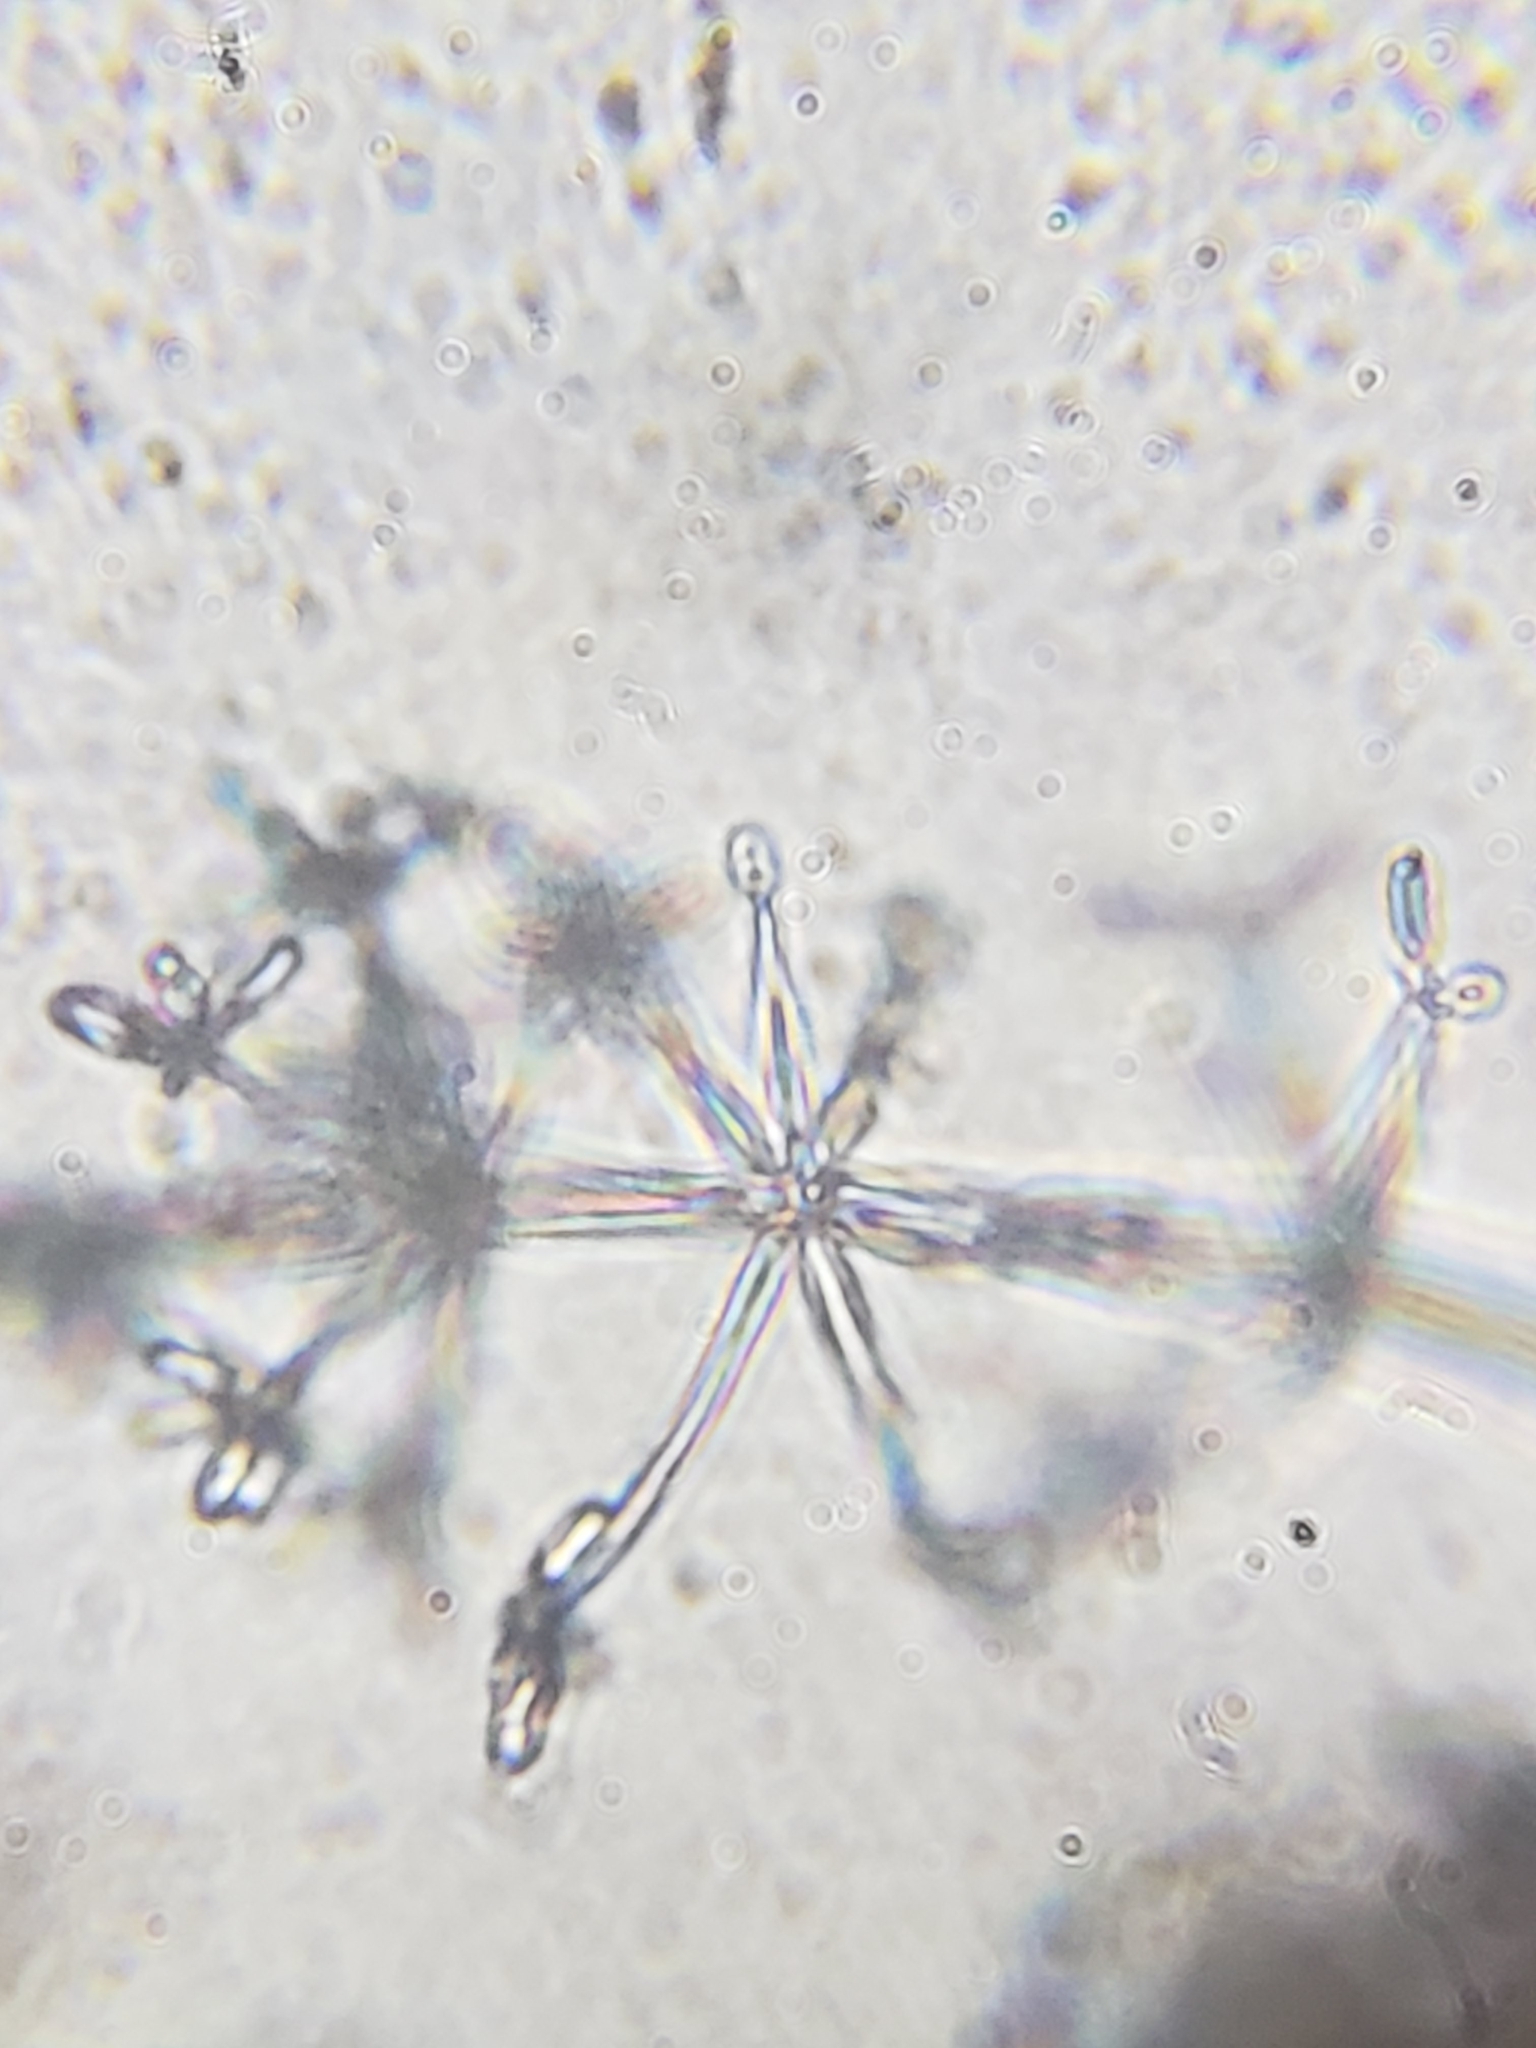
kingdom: Fungi
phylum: Ascomycota
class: Sordariomycetes
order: Hypocreales
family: Calcarisporiaceae
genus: Calcarisporium
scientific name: Calcarisporium arbuscula
